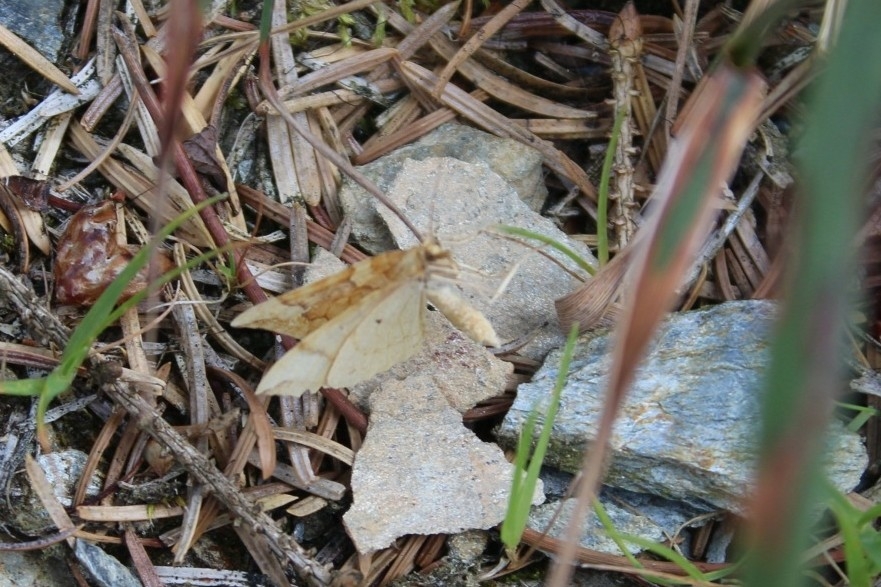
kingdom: Animalia
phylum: Arthropoda
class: Insecta
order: Lepidoptera
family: Geometridae
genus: Eulithis
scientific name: Eulithis pyraliata
